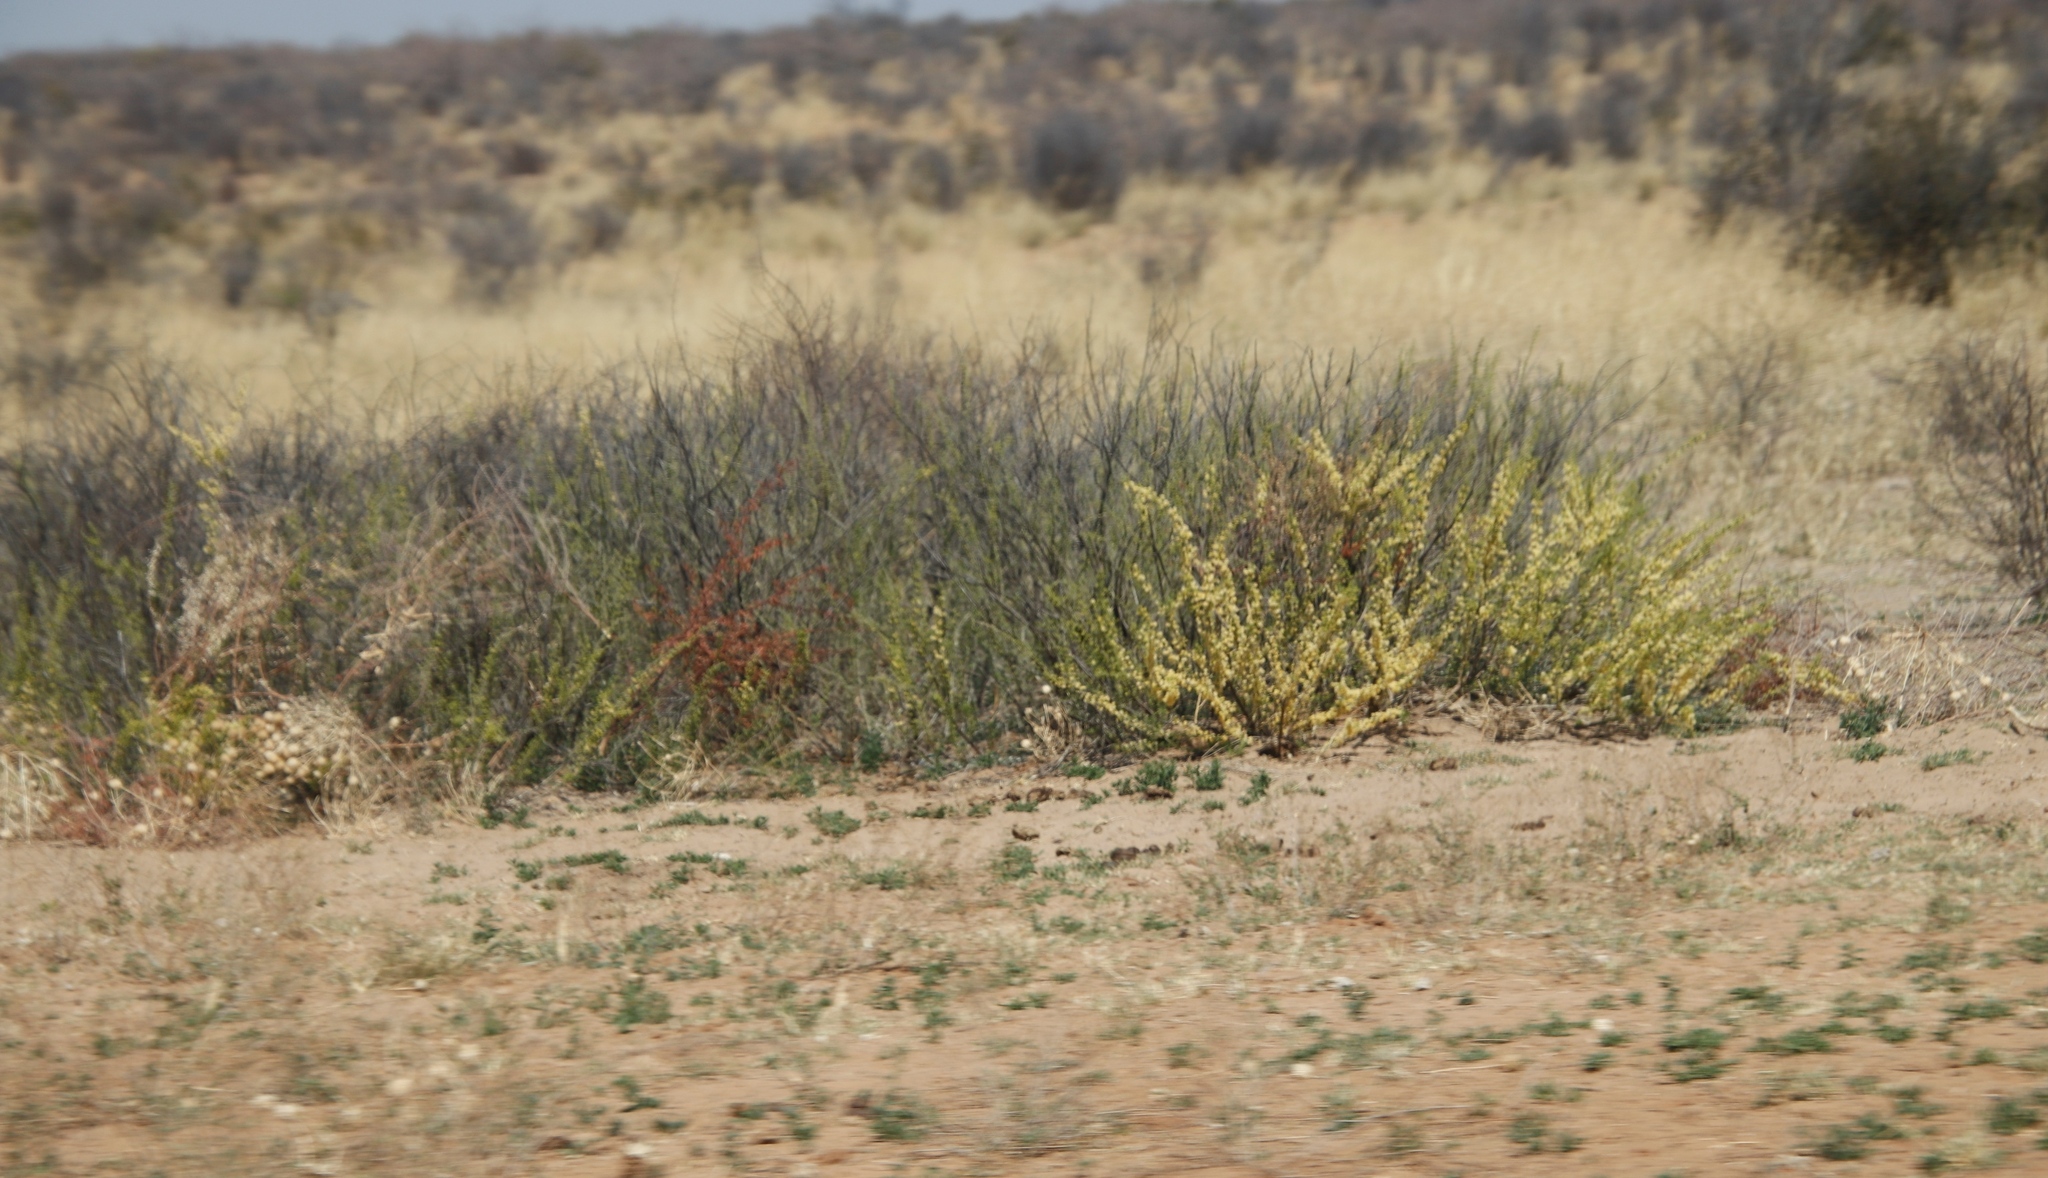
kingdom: Plantae
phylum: Tracheophyta
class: Magnoliopsida
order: Fabales
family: Fabaceae
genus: Vachellia
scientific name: Vachellia hebeclada
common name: Candle thorn
